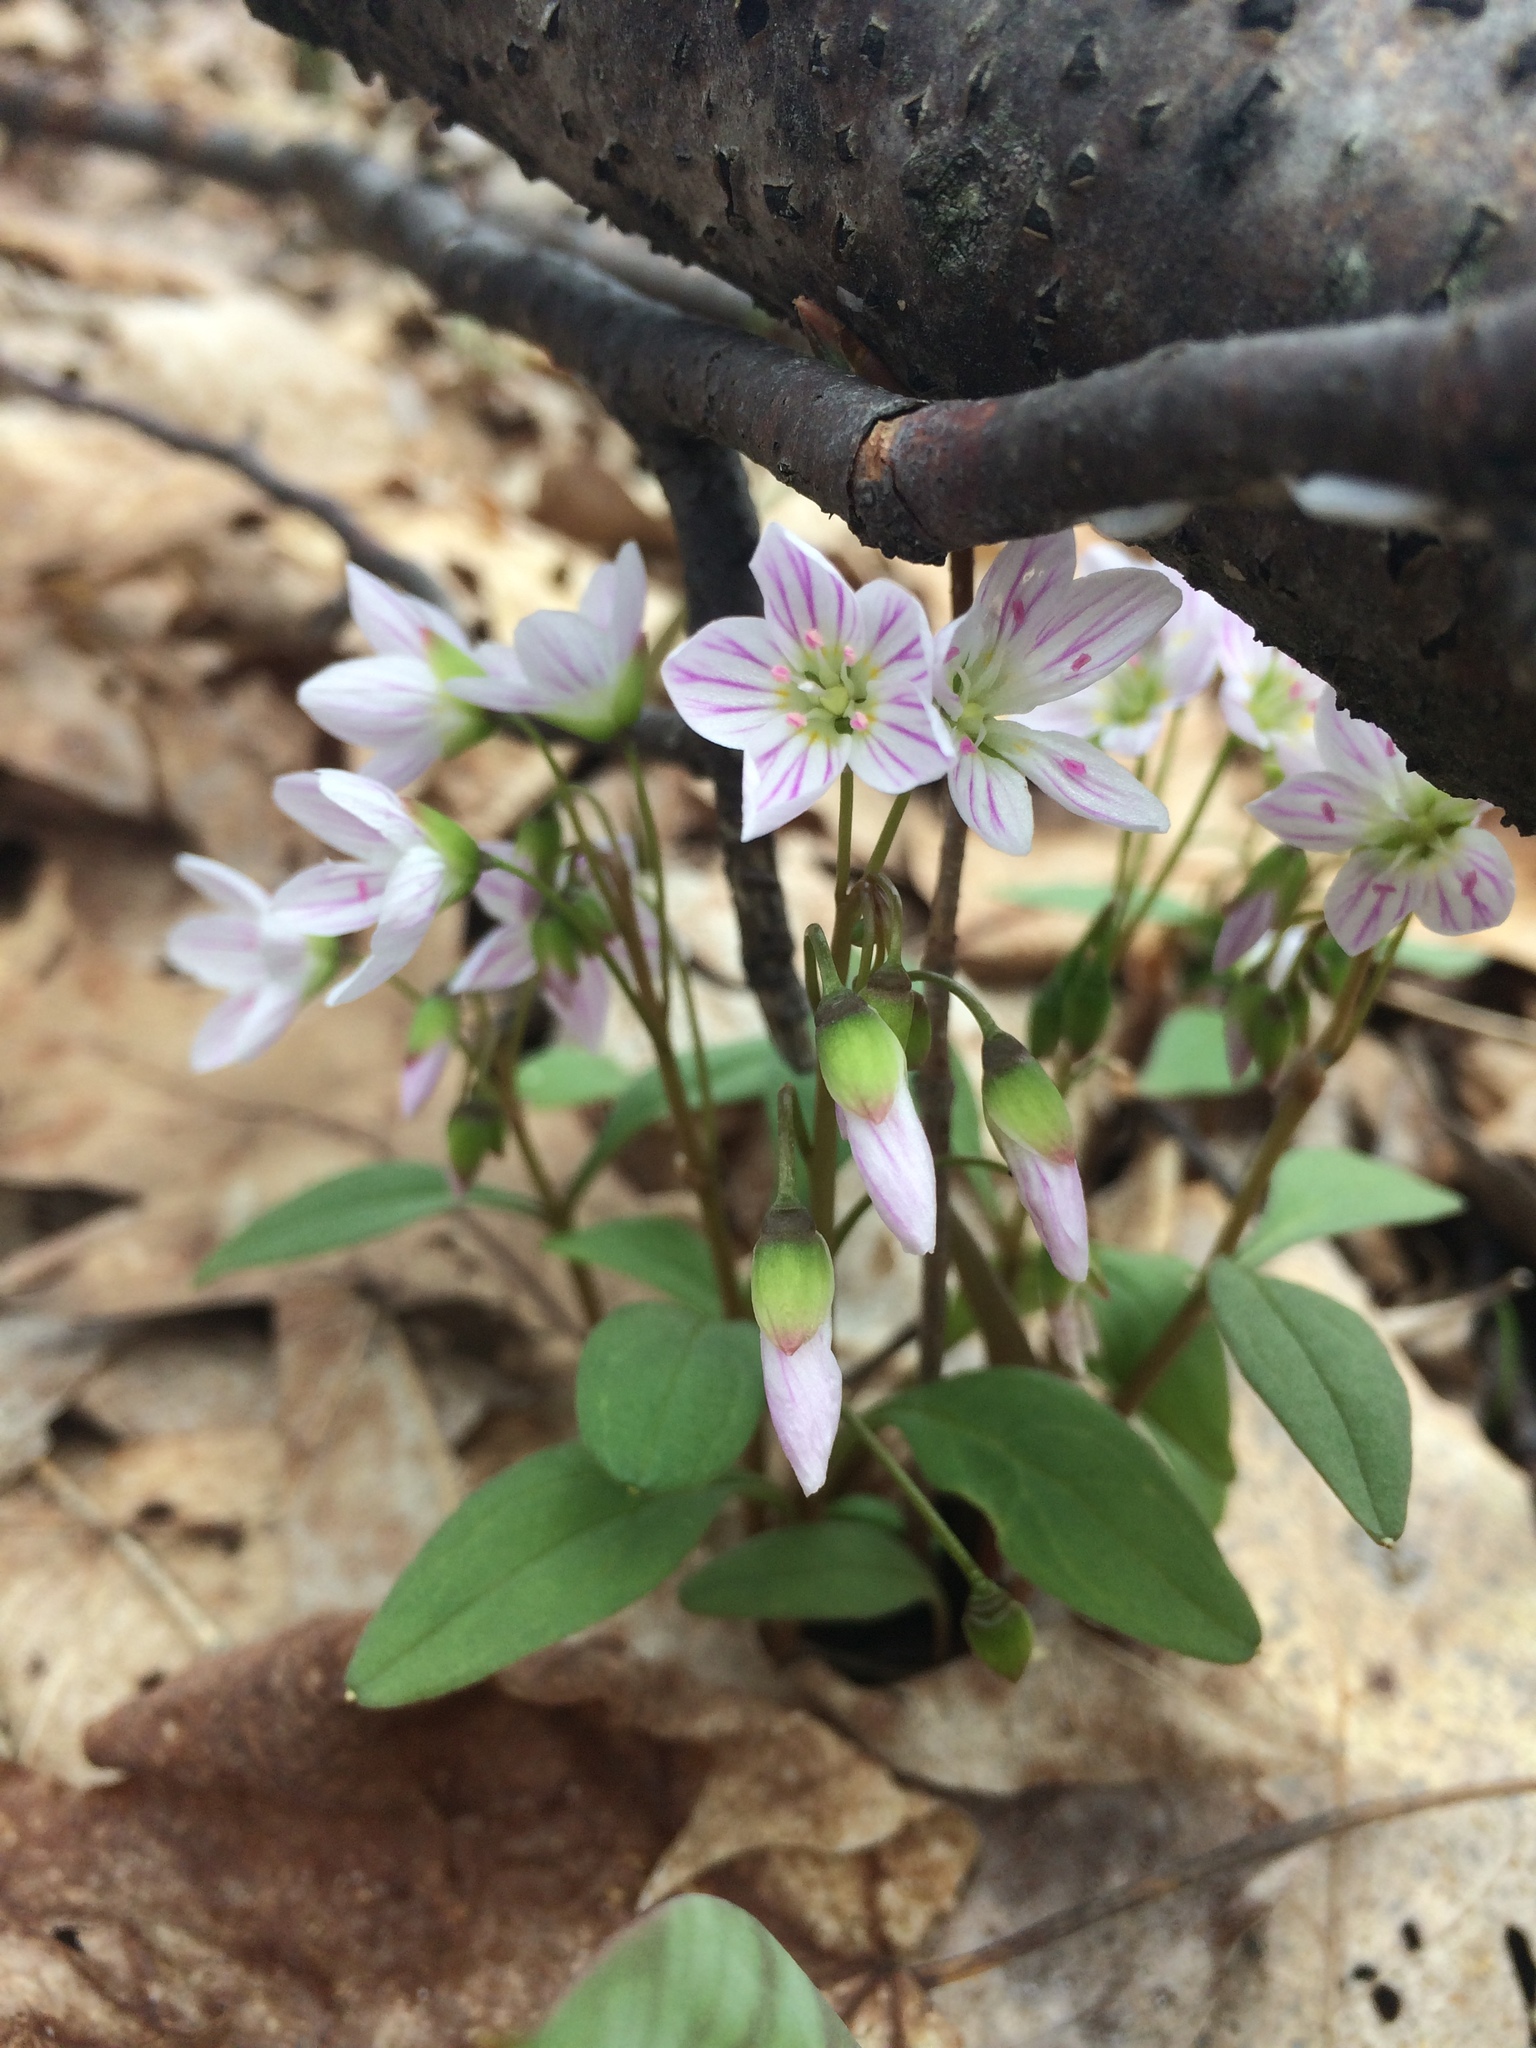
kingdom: Plantae
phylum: Tracheophyta
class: Magnoliopsida
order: Caryophyllales
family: Montiaceae
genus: Claytonia
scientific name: Claytonia caroliniana
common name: Carolina spring beauty
